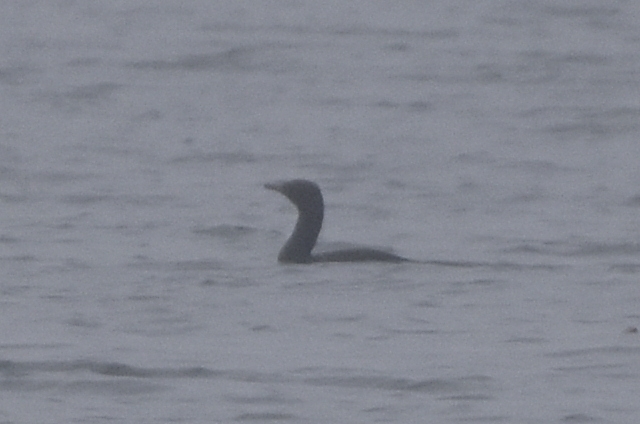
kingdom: Animalia
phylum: Chordata
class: Aves
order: Suliformes
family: Phalacrocoracidae
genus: Phalacrocorax
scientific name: Phalacrocorax pelagicus
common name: Pelagic cormorant
